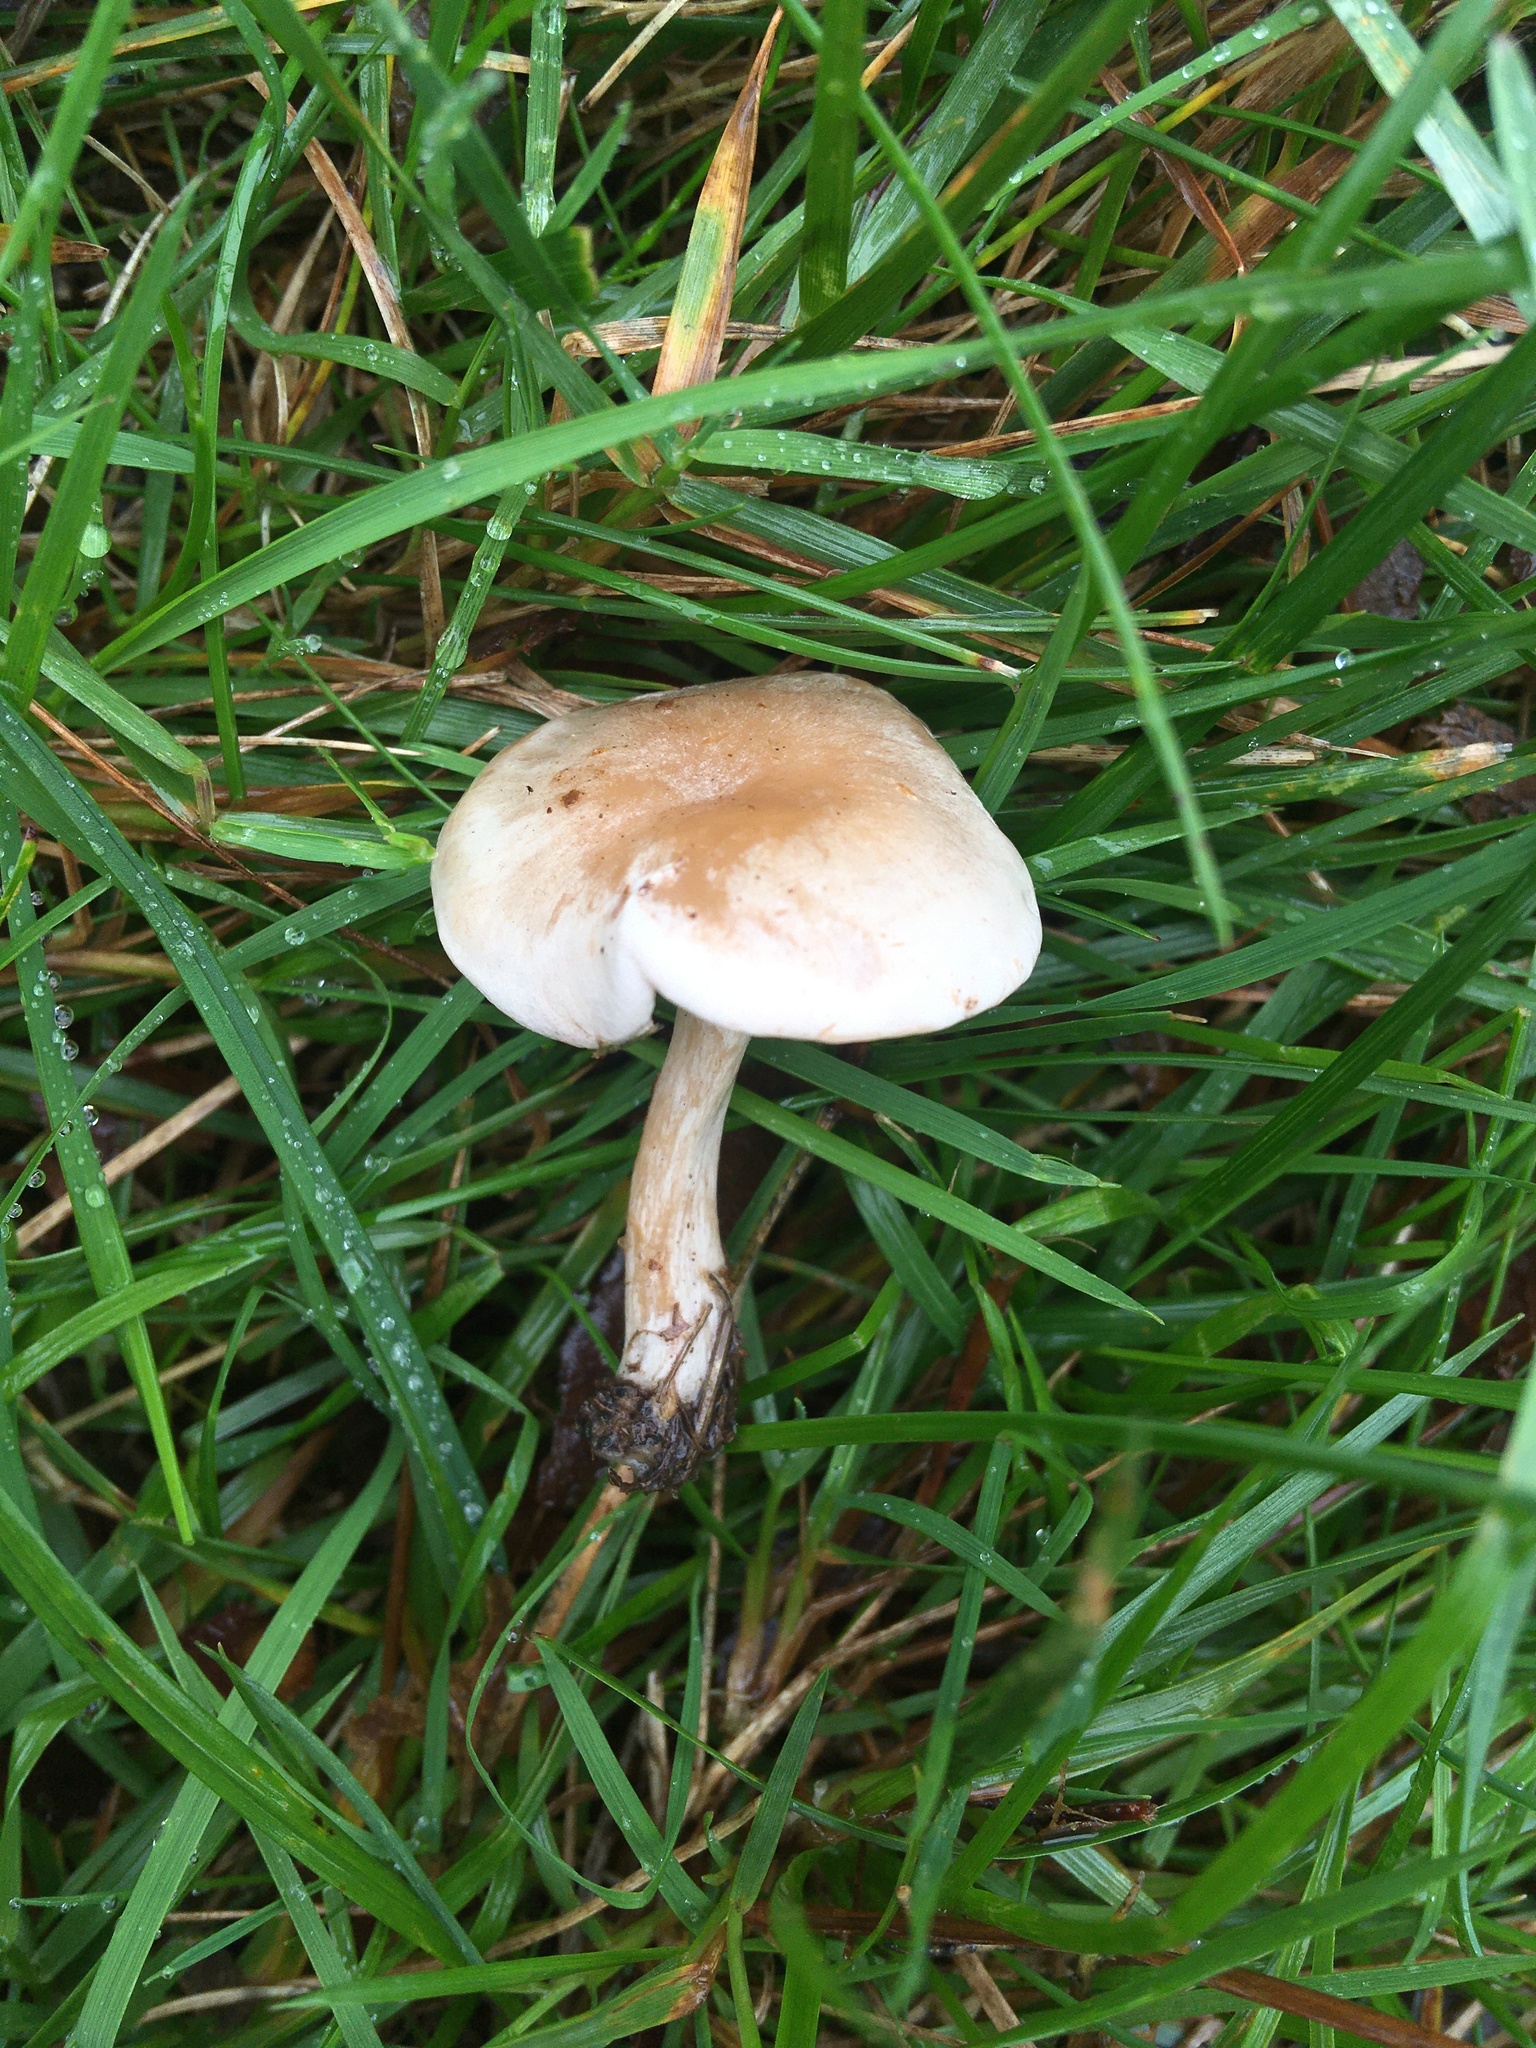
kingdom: Fungi
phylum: Basidiomycota
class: Agaricomycetes
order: Agaricales
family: Hymenogastraceae
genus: Hebeloma
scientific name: Hebeloma ischnostylum
